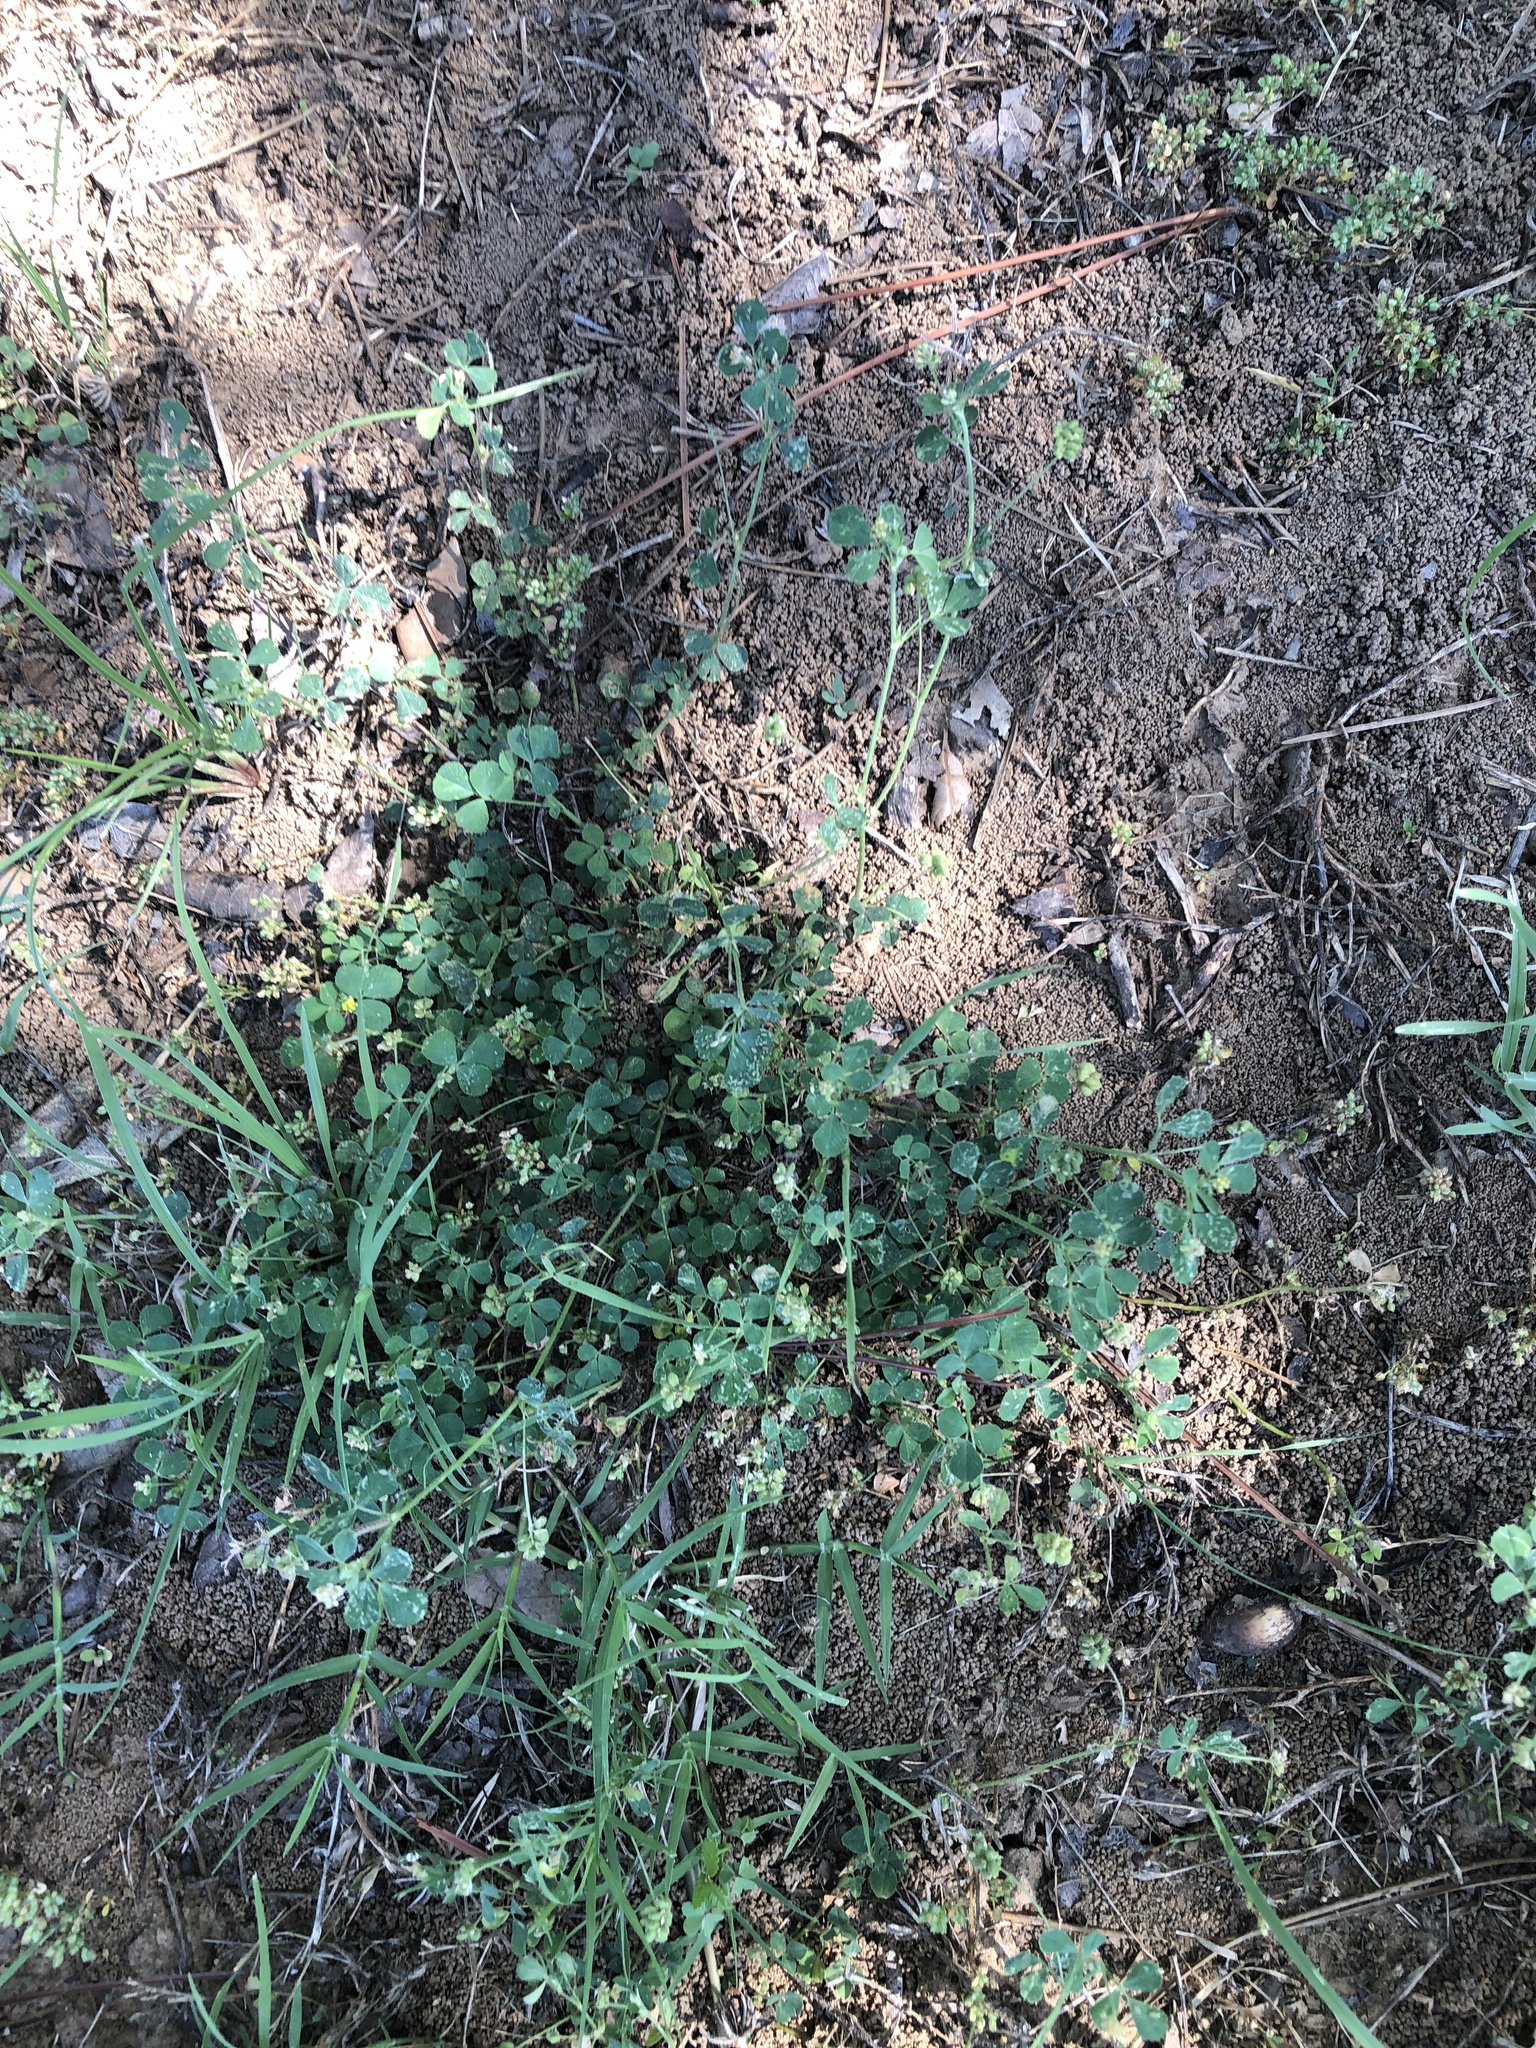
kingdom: Plantae
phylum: Tracheophyta
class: Magnoliopsida
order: Fabales
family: Fabaceae
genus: Medicago
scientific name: Medicago lupulina
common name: Black medick
